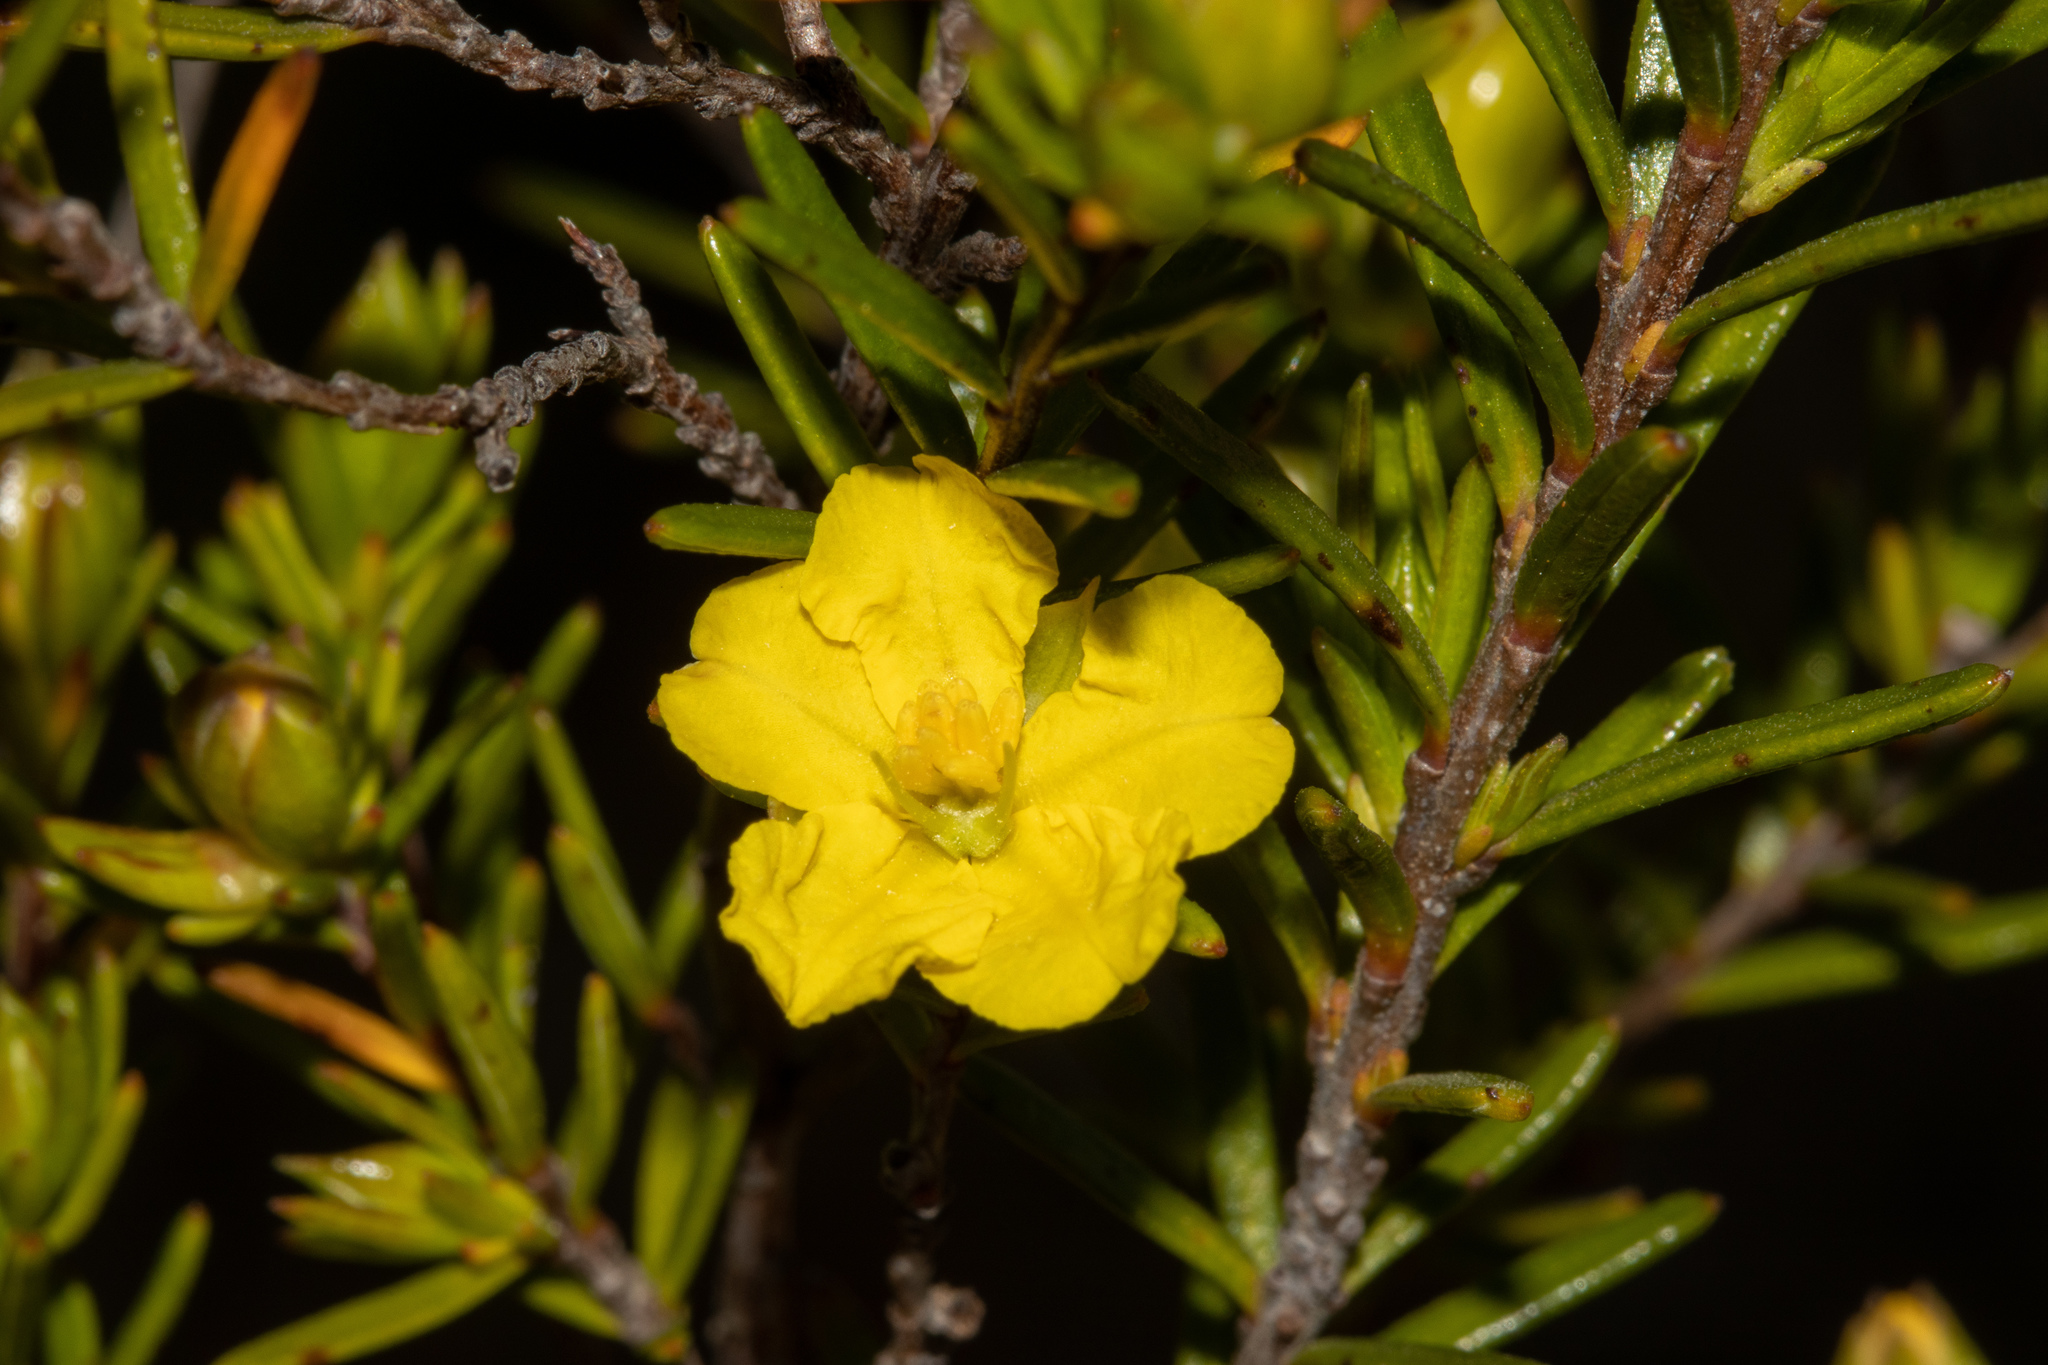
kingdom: Plantae
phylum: Tracheophyta
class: Magnoliopsida
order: Dilleniales
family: Dilleniaceae
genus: Hibbertia
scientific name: Hibbertia devitata
